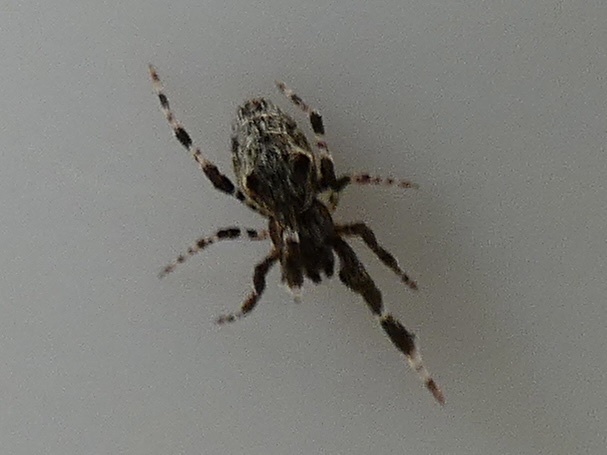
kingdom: Animalia
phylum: Arthropoda
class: Arachnida
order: Araneae
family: Uloboridae
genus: Uloborus
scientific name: Uloborus plumipes
